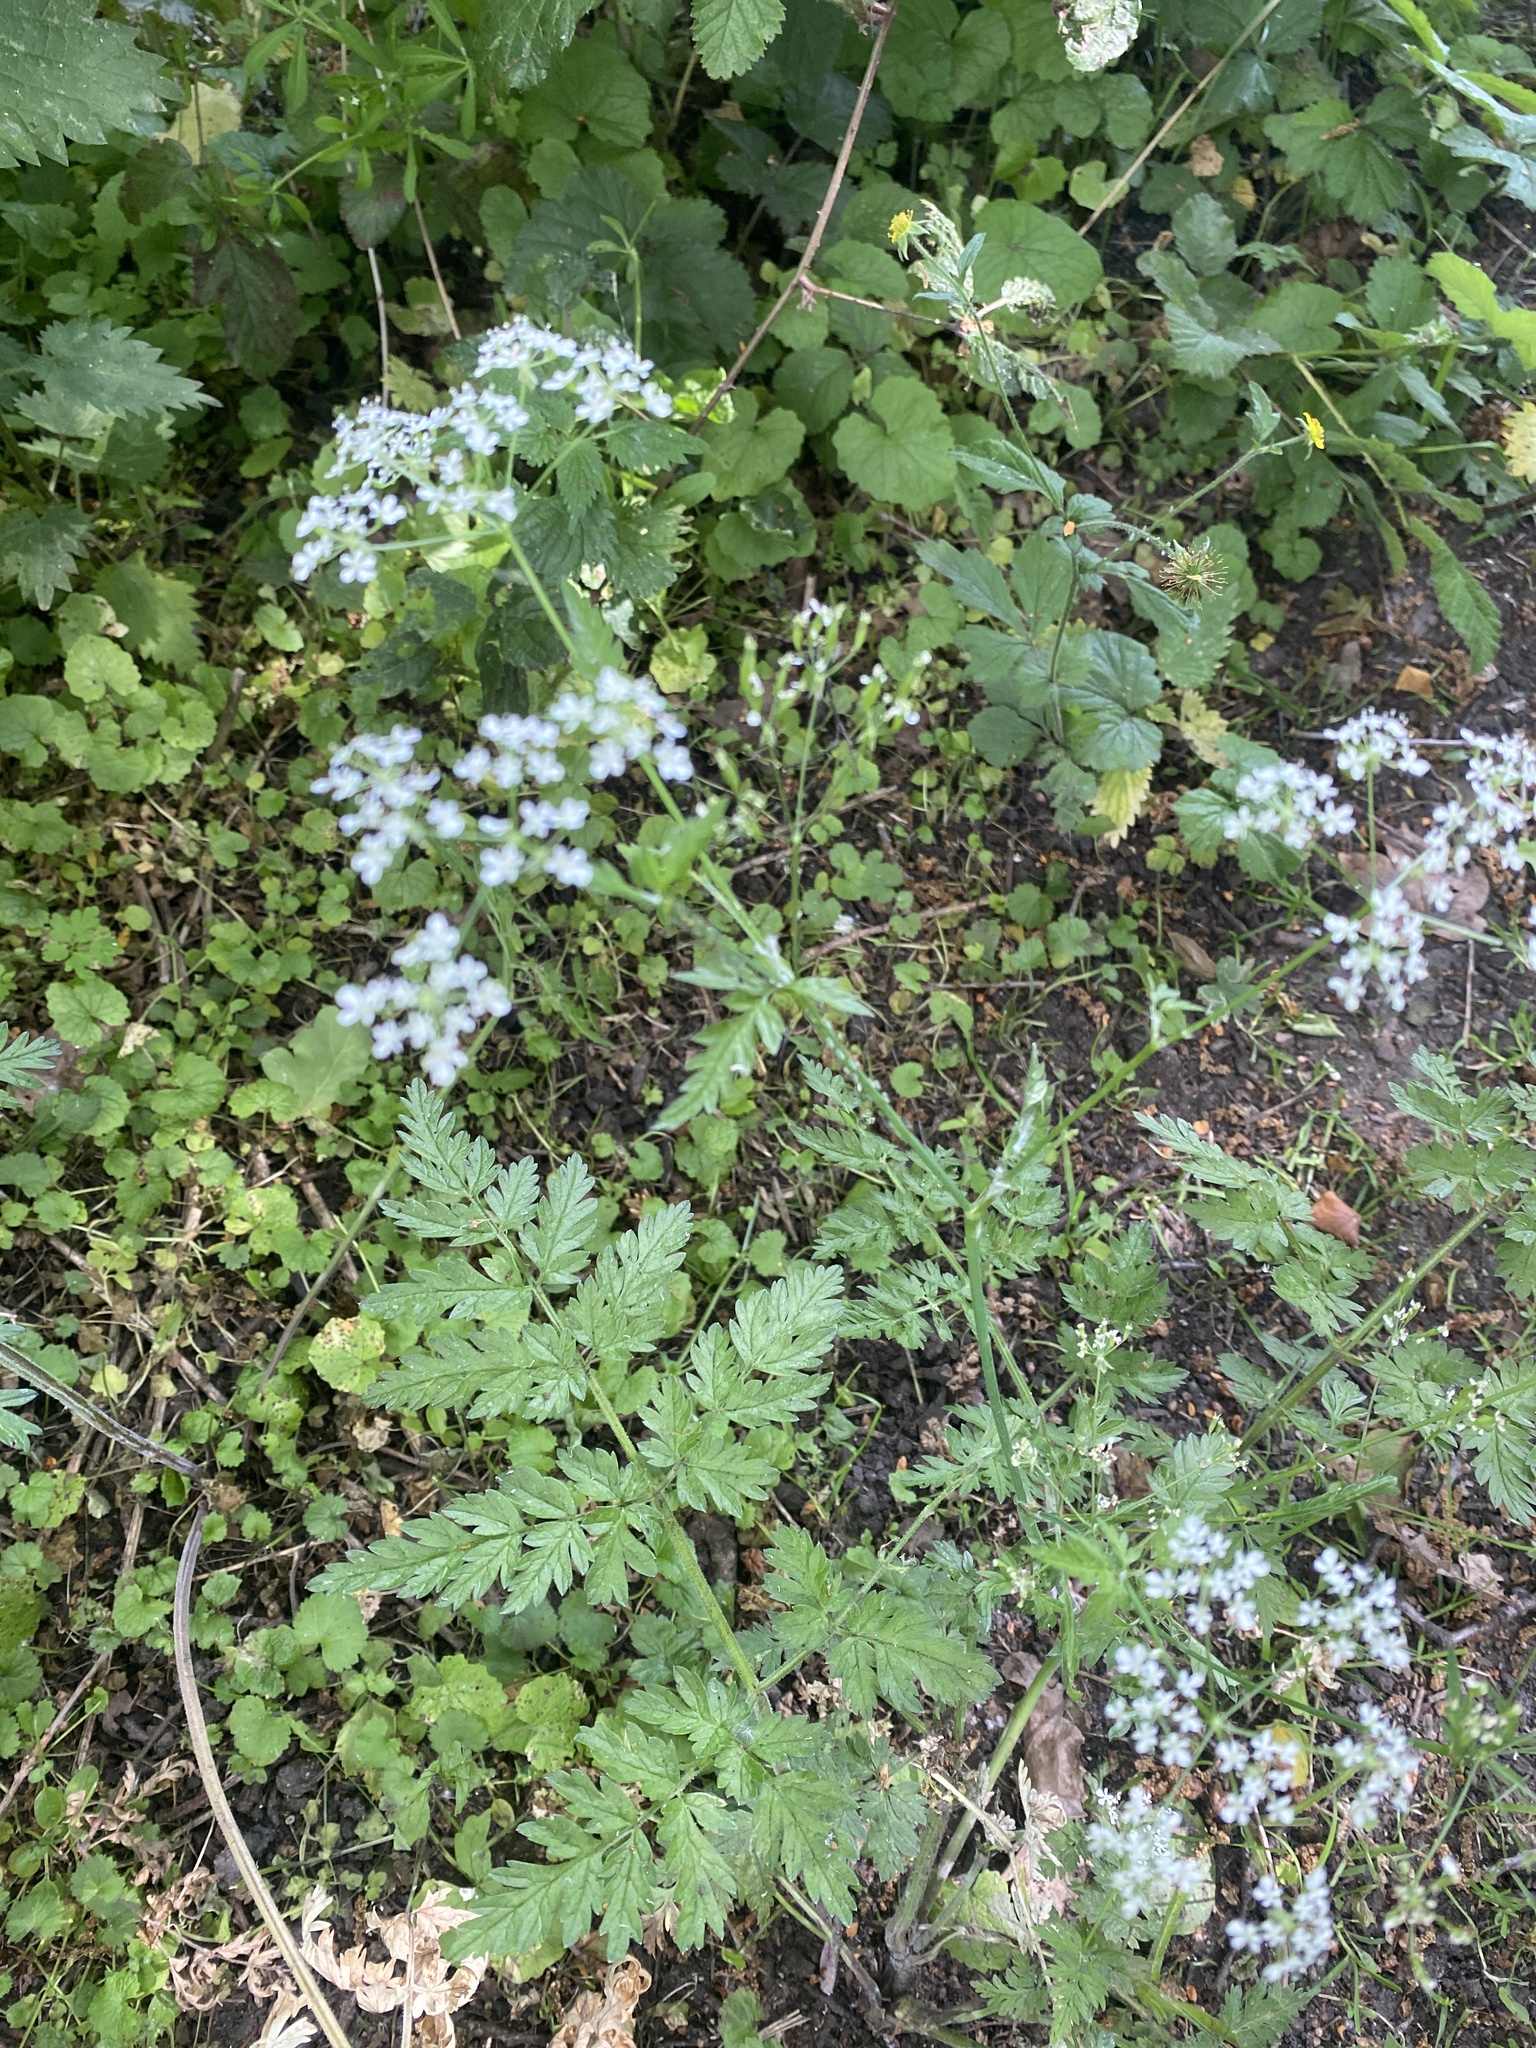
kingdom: Plantae
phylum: Tracheophyta
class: Magnoliopsida
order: Apiales
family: Apiaceae
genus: Anthriscus
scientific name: Anthriscus sylvestris
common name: Cow parsley
